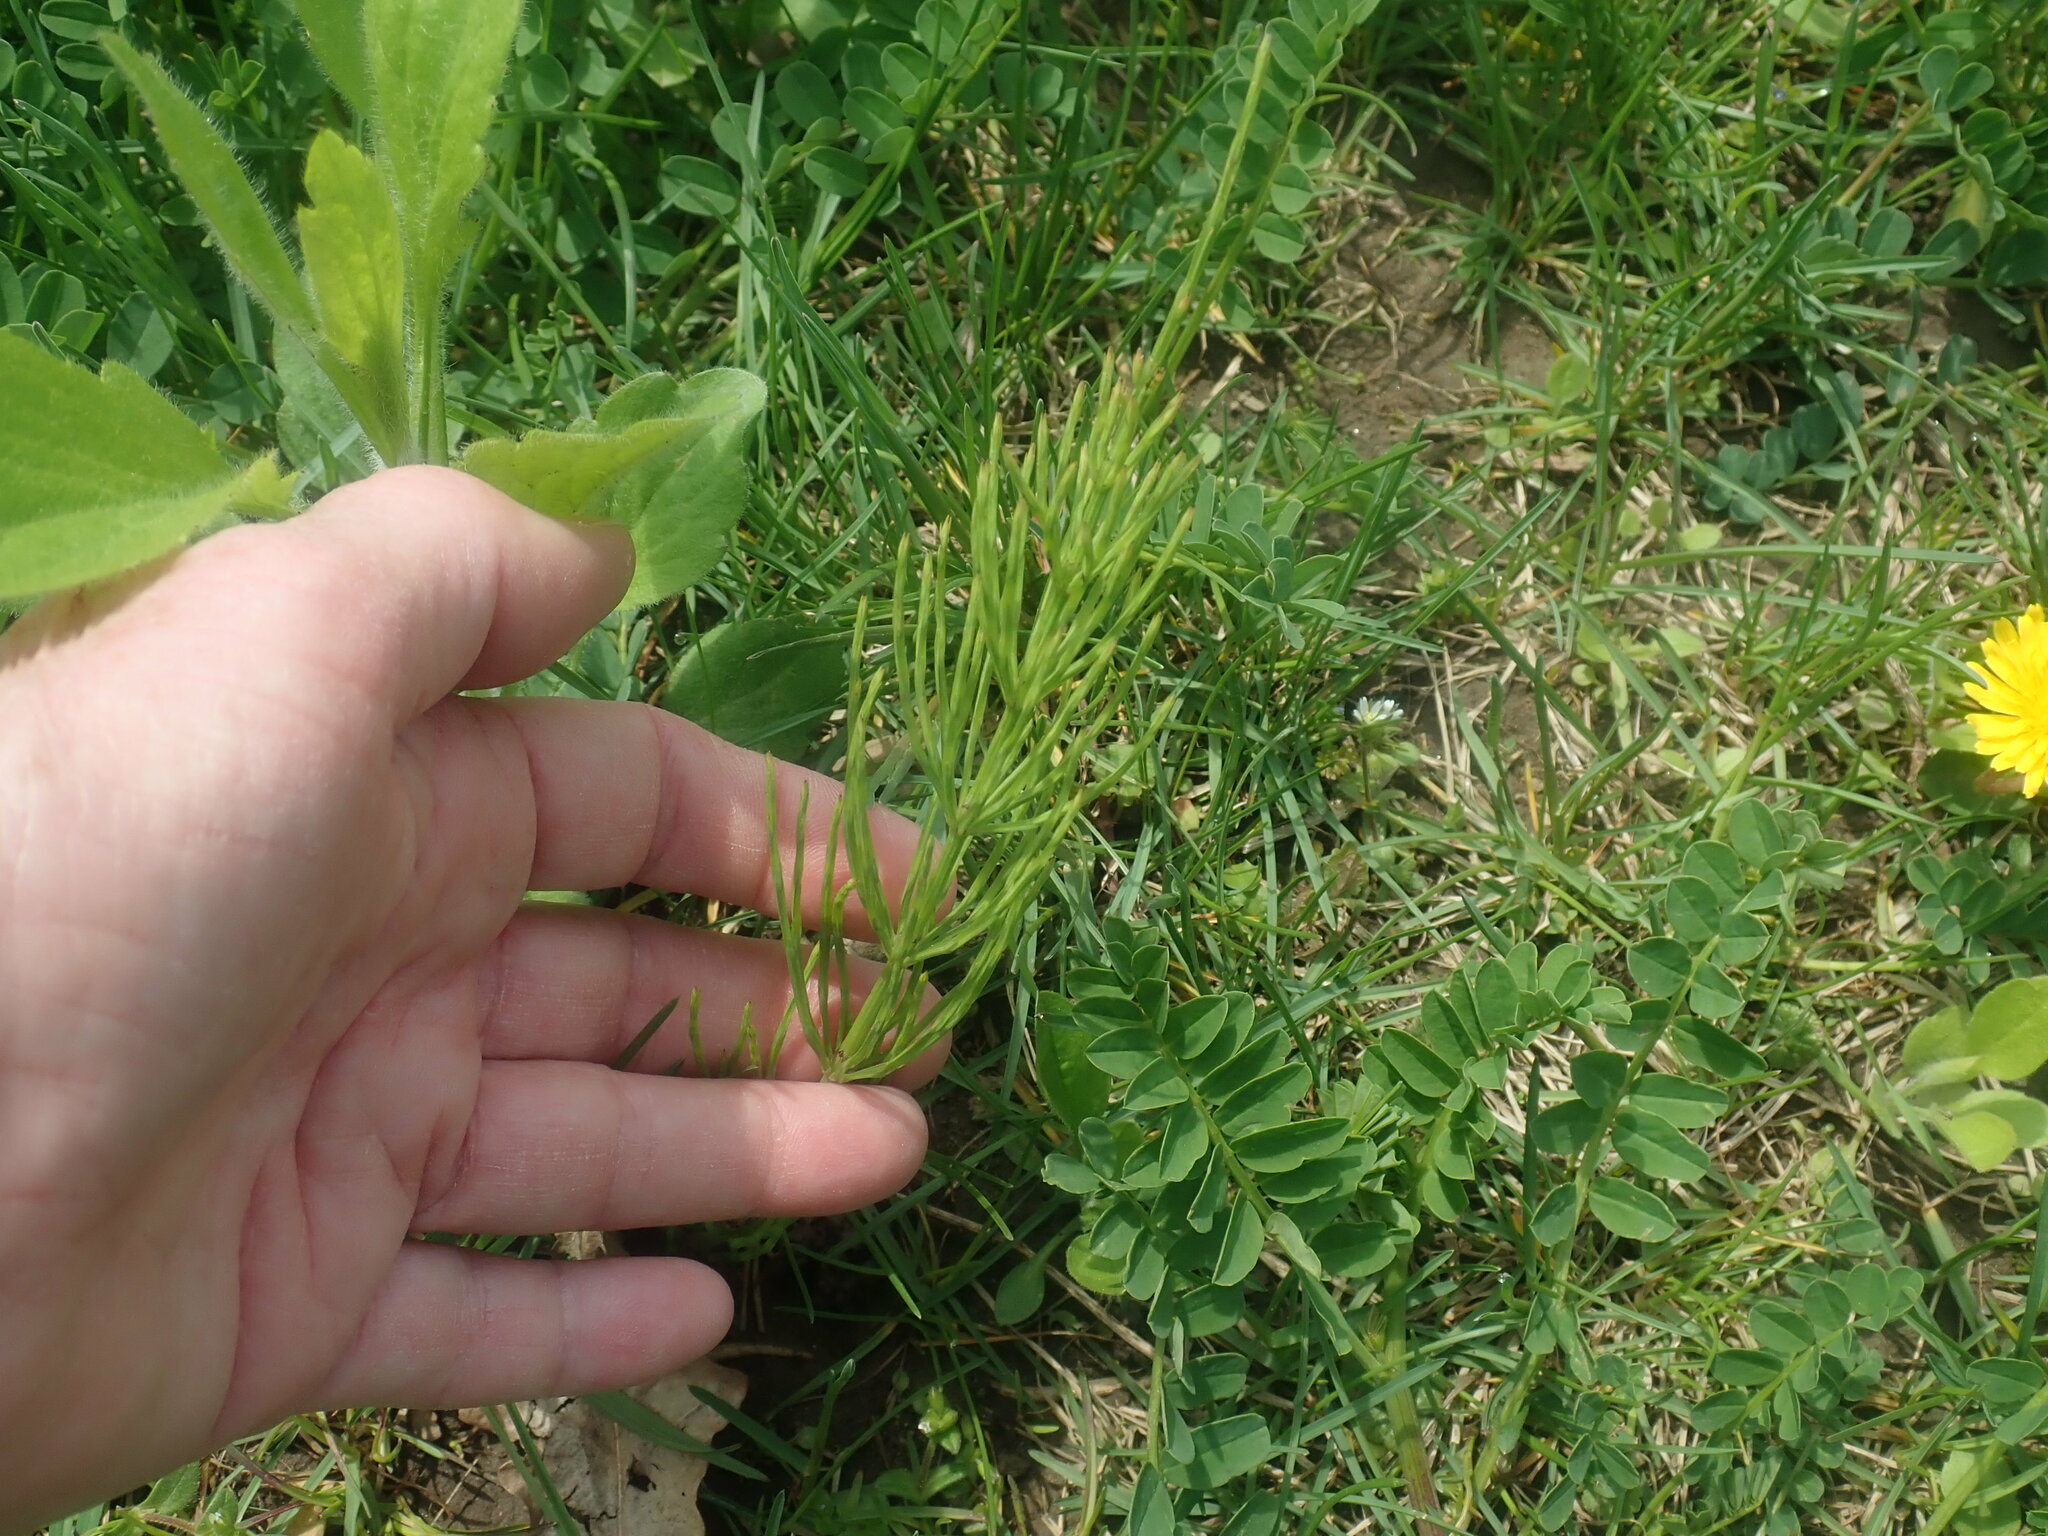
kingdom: Plantae
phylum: Tracheophyta
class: Polypodiopsida
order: Equisetales
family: Equisetaceae
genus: Equisetum
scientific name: Equisetum arvense
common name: Field horsetail
